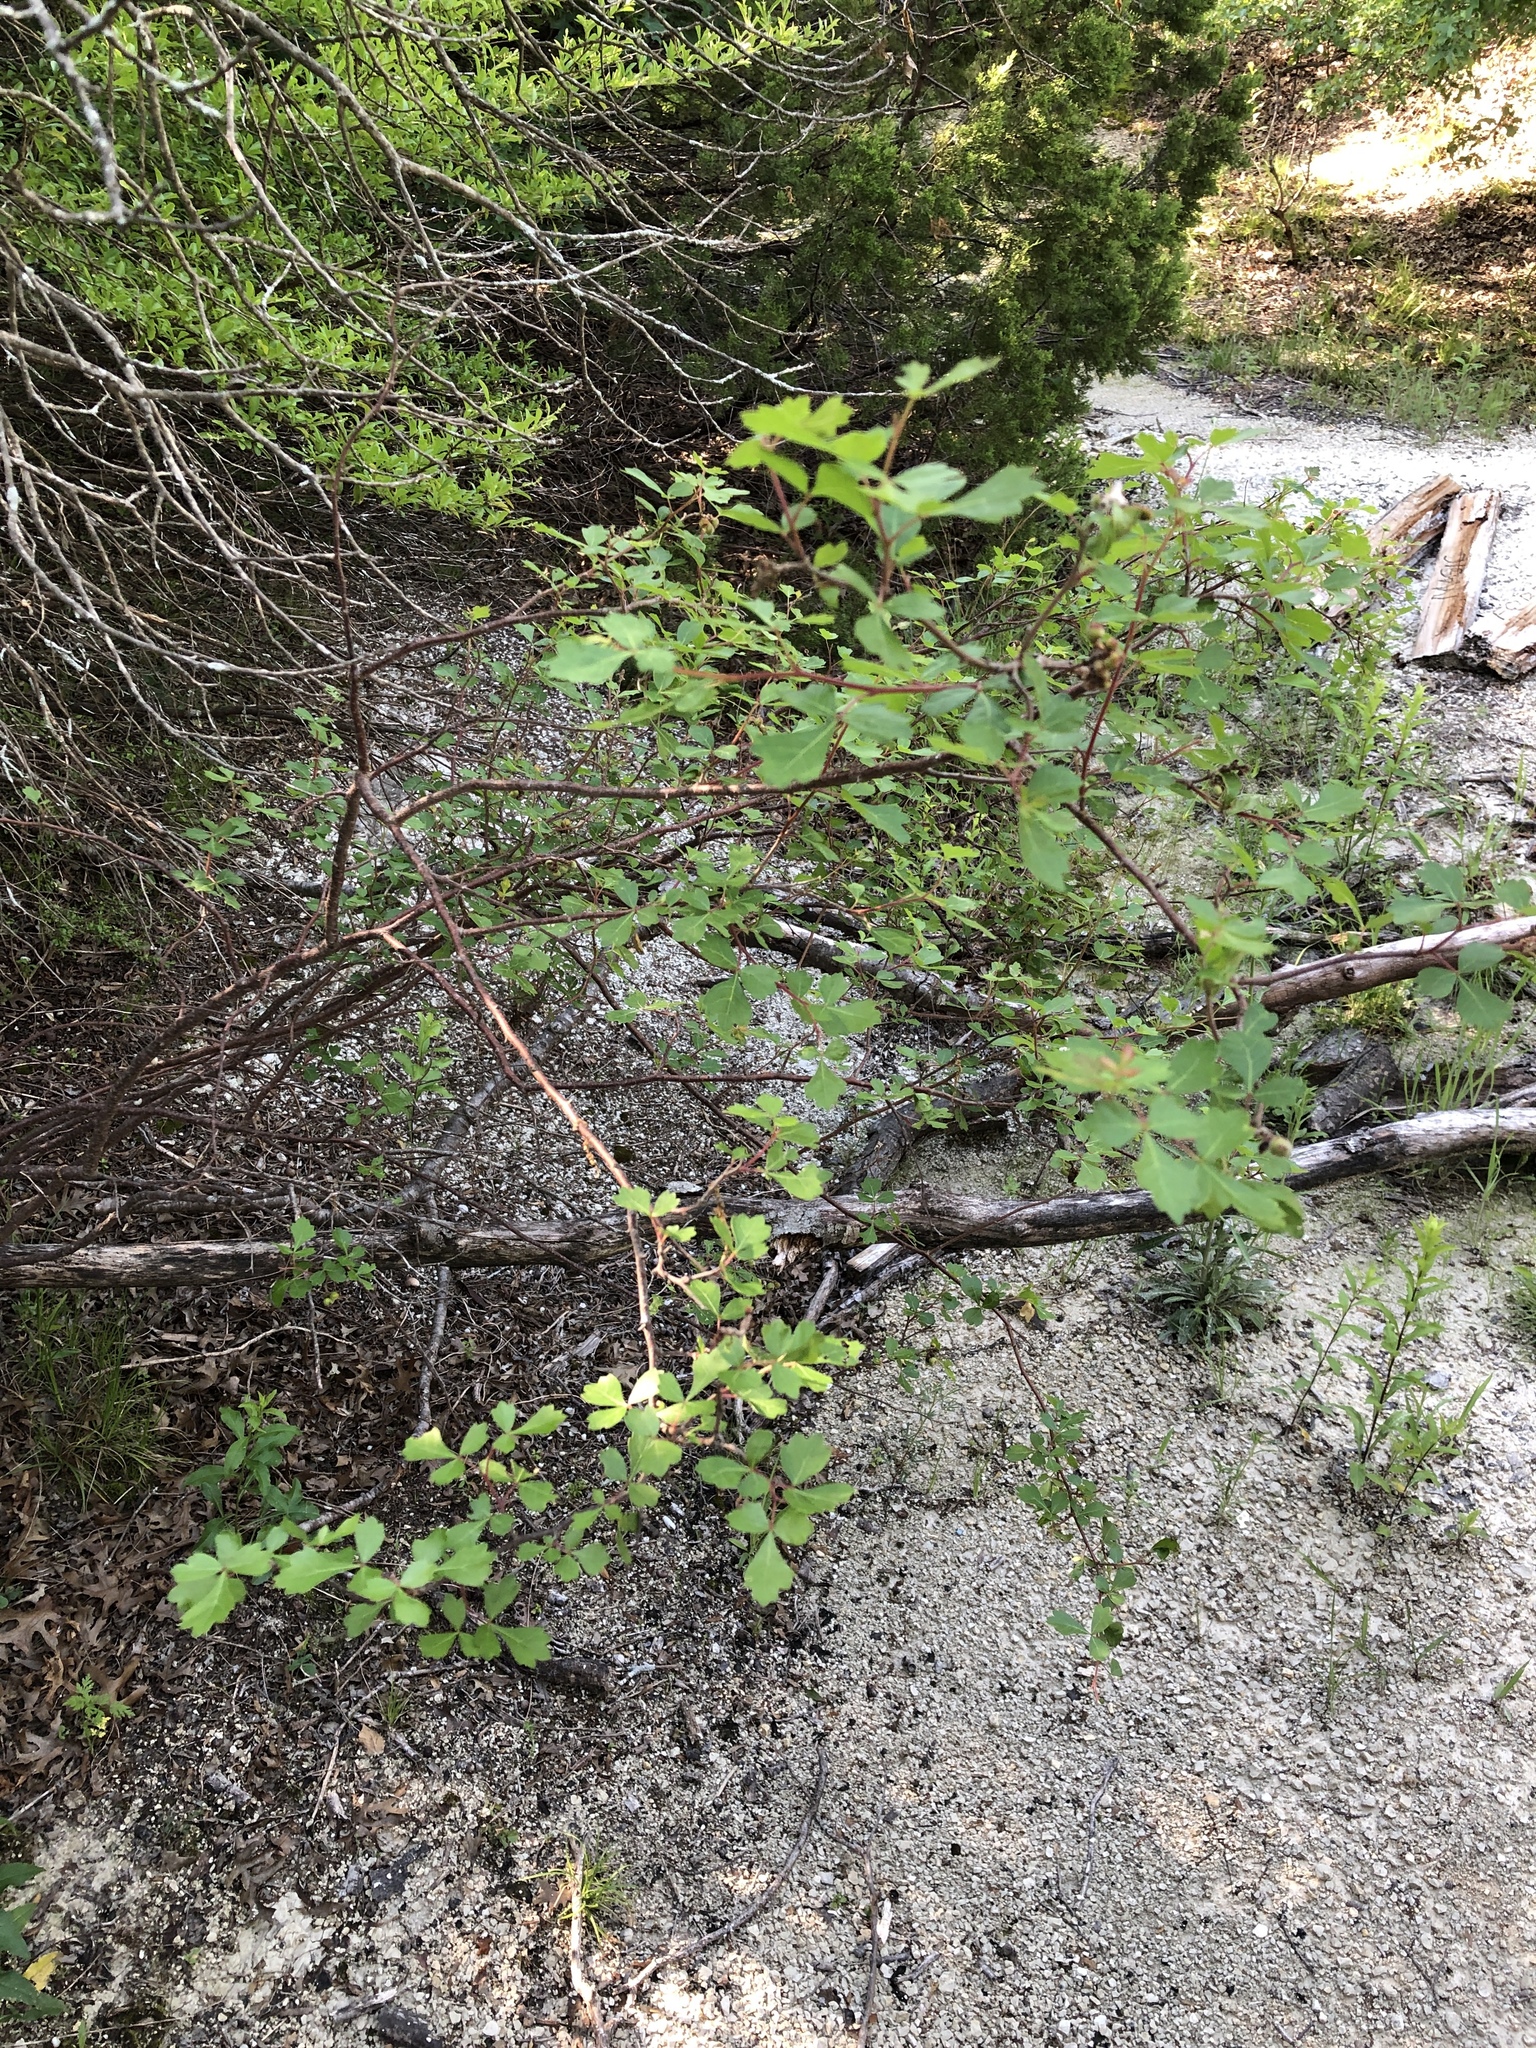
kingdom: Plantae
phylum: Tracheophyta
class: Magnoliopsida
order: Sapindales
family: Anacardiaceae
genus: Rhus
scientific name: Rhus aromatica
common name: Aromatic sumac
